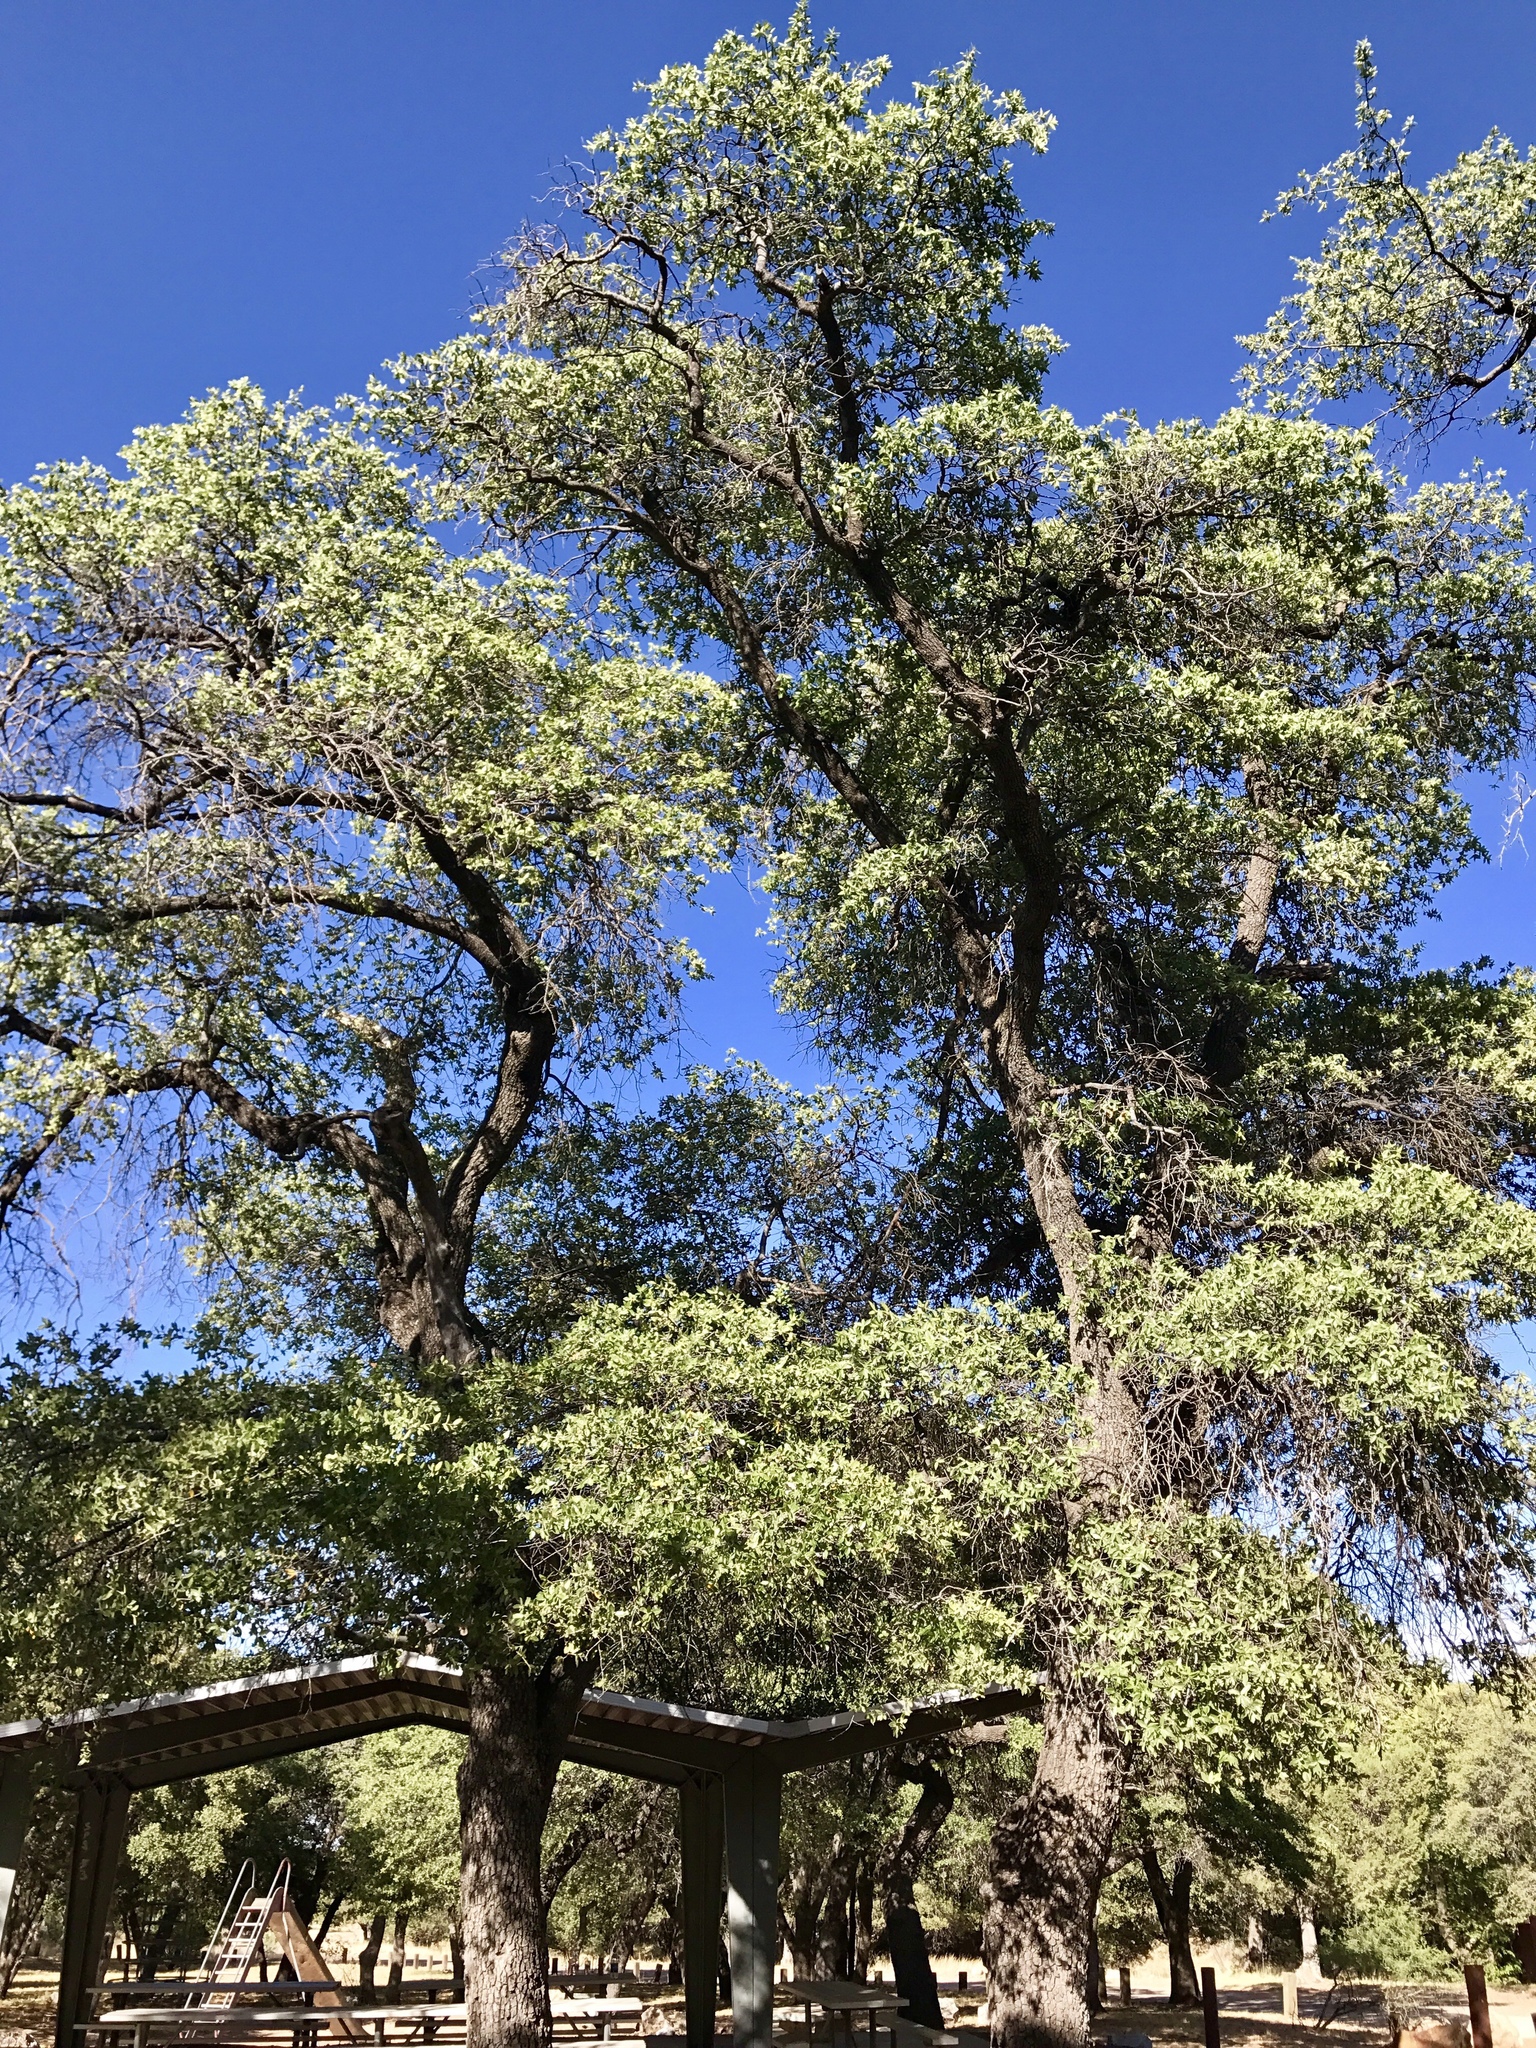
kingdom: Plantae
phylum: Tracheophyta
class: Magnoliopsida
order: Fagales
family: Fagaceae
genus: Quercus
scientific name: Quercus arizonica
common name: Arizona white oak
